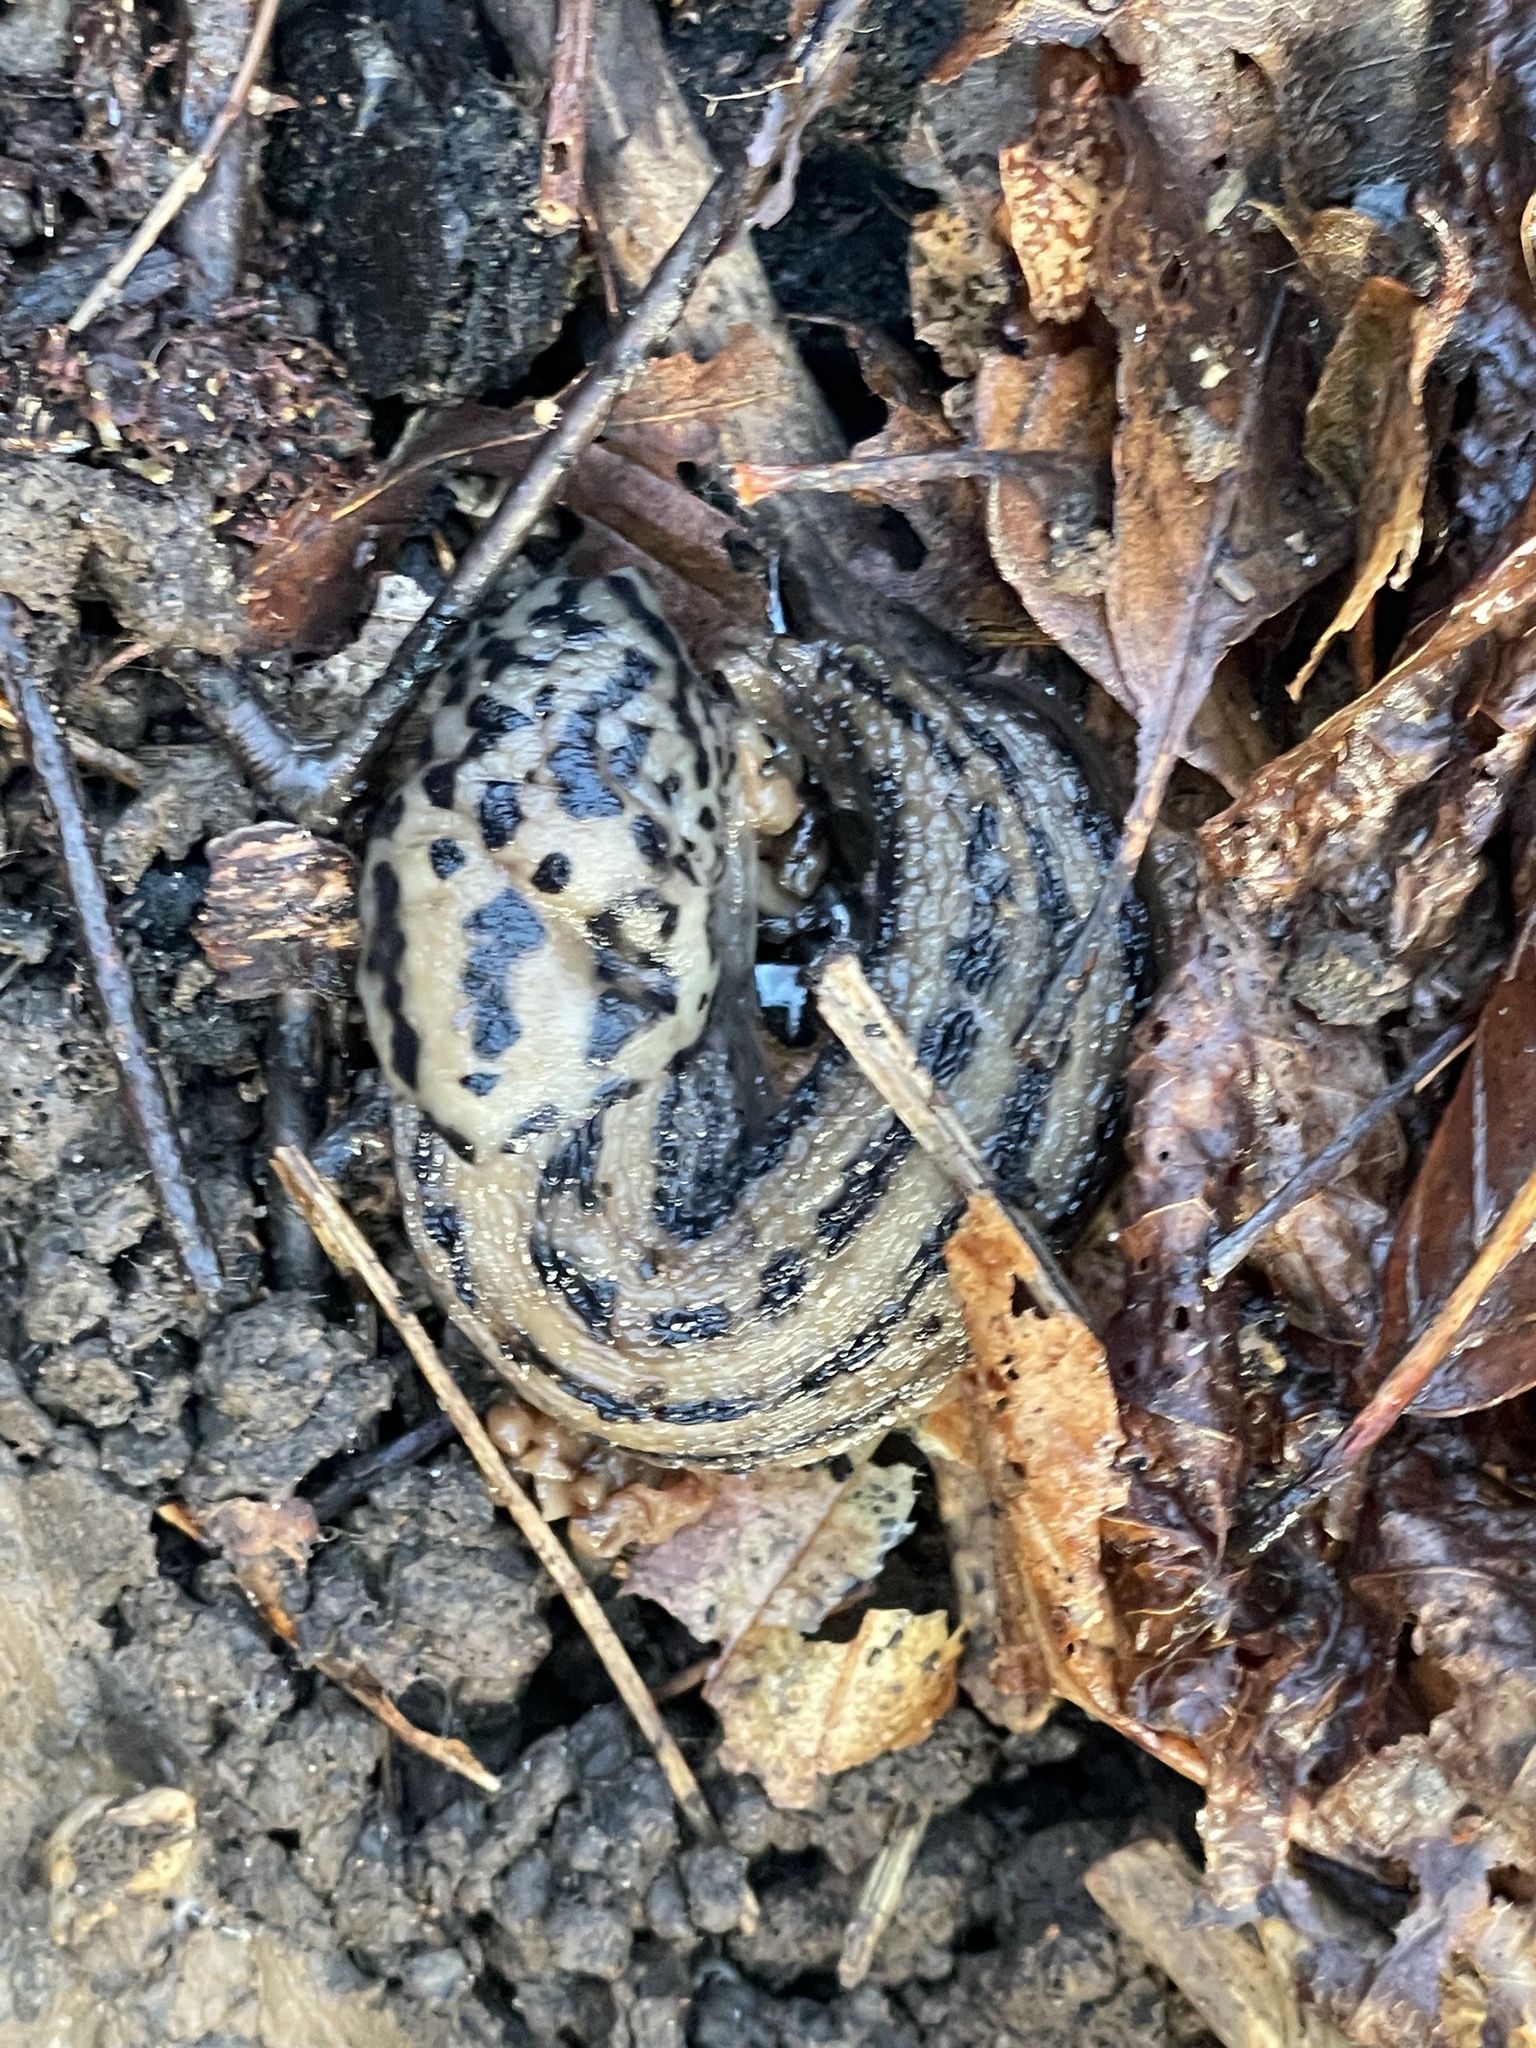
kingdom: Animalia
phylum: Mollusca
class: Gastropoda
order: Stylommatophora
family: Limacidae
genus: Limax
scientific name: Limax maximus
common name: Great grey slug
